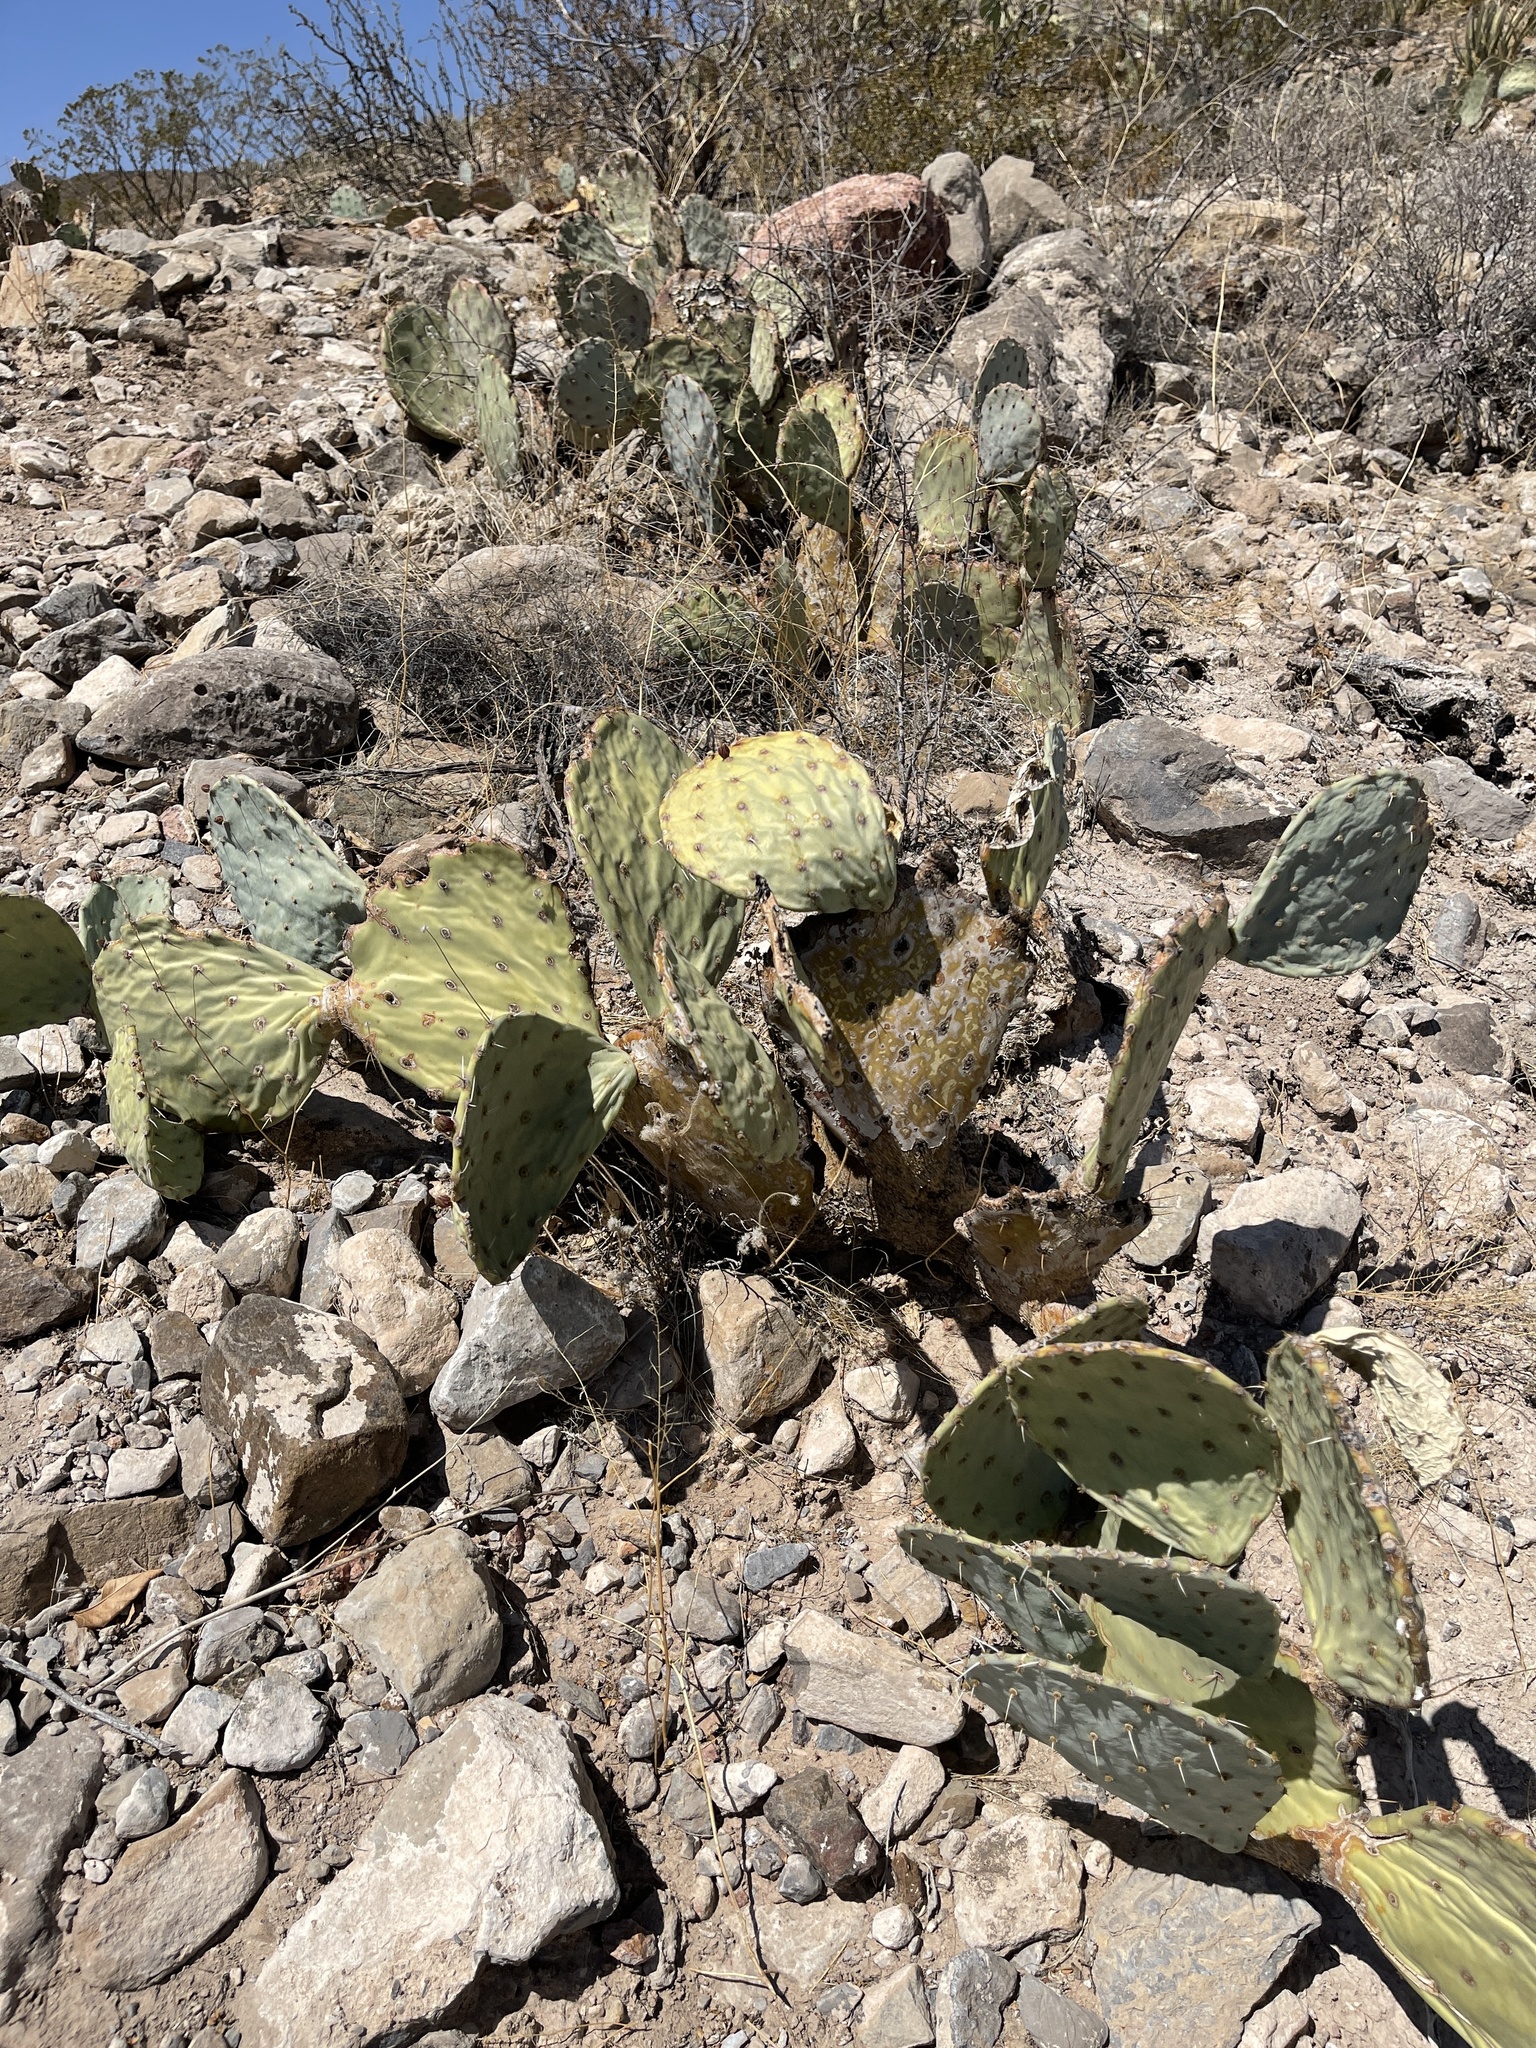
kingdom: Plantae
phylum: Tracheophyta
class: Magnoliopsida
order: Caryophyllales
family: Cactaceae
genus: Opuntia
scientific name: Opuntia engelmannii
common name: Cactus-apple
